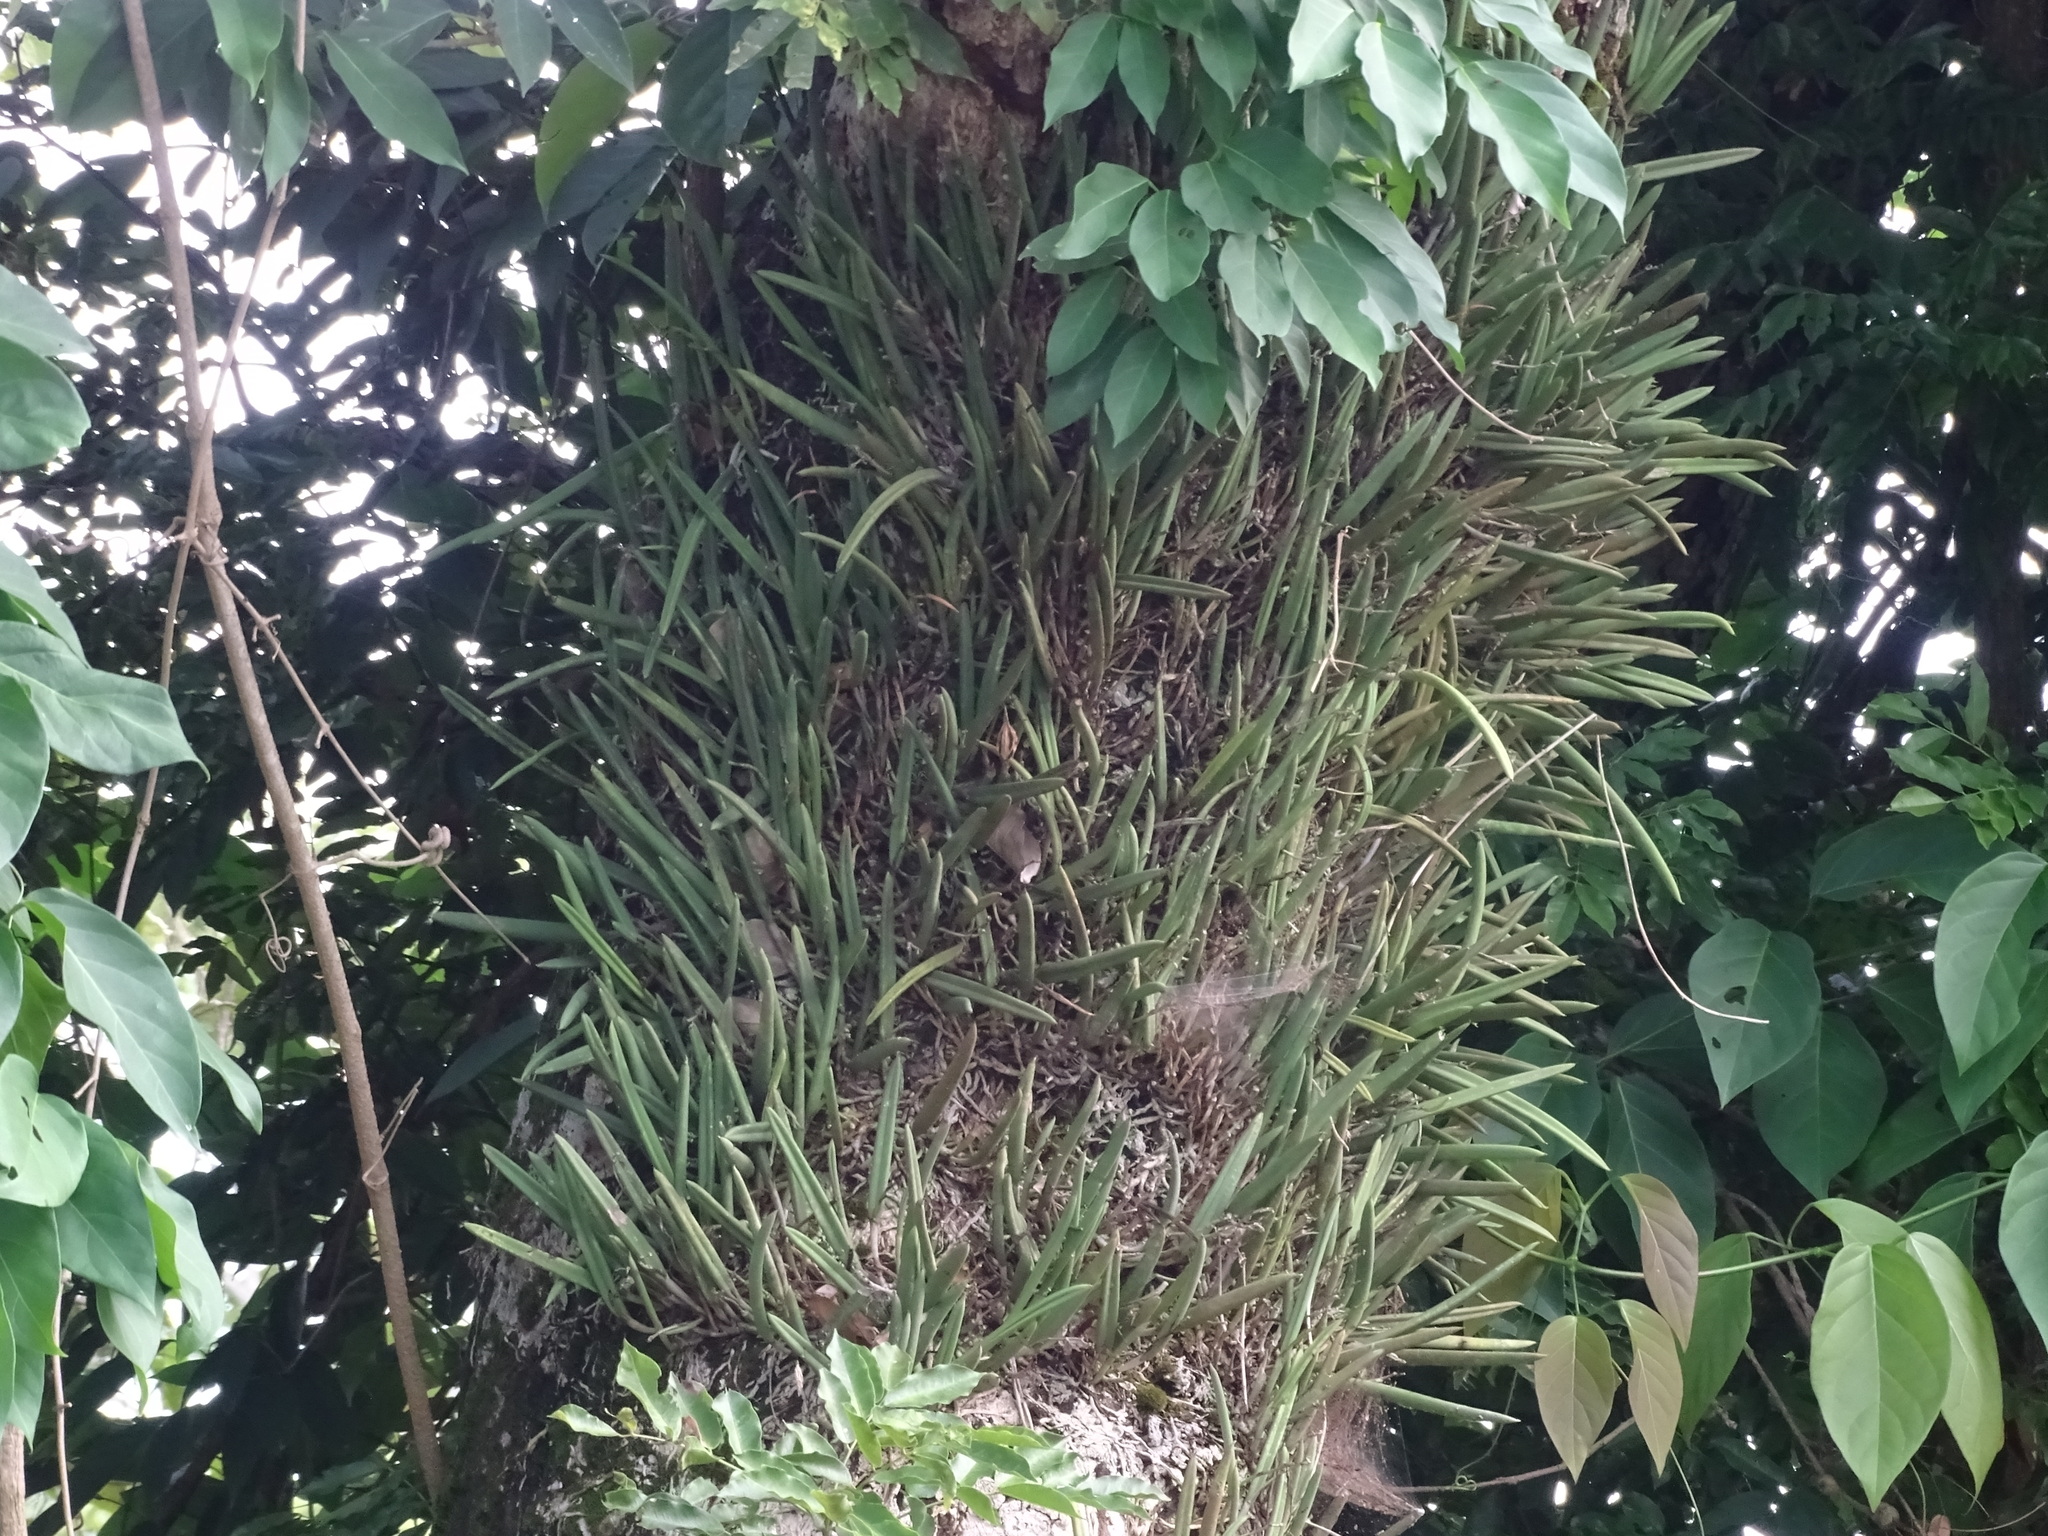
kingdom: Plantae
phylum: Tracheophyta
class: Liliopsida
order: Asparagales
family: Orchidaceae
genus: Brassavola
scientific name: Brassavola nodosa
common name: Lady of the night
